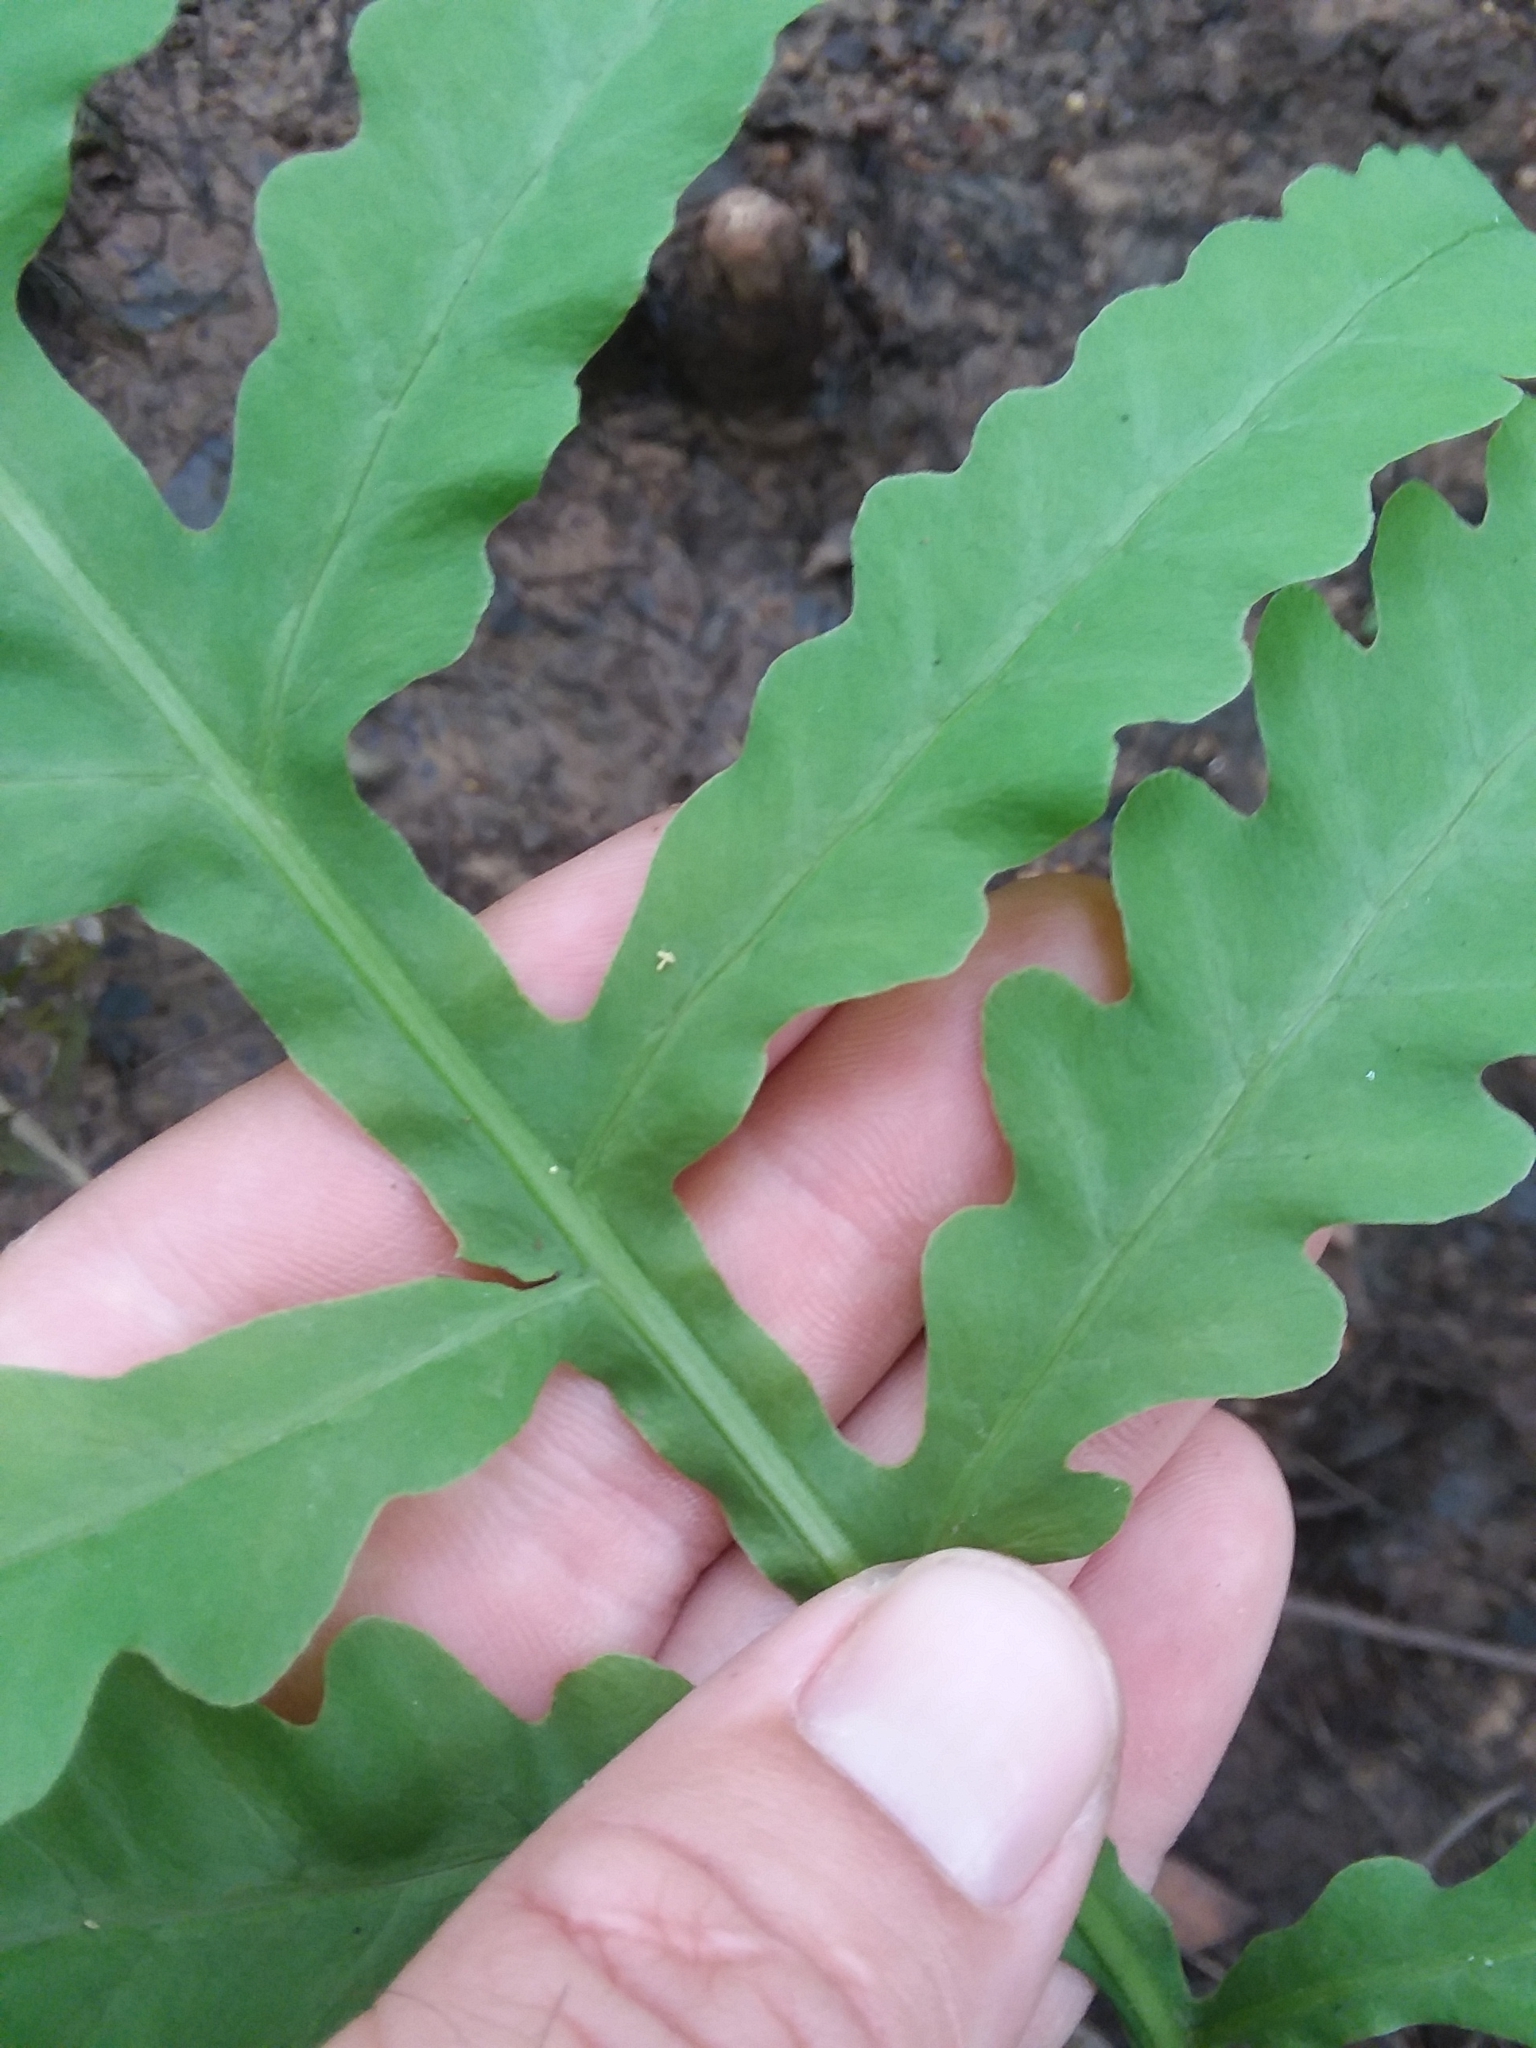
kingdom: Plantae
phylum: Tracheophyta
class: Polypodiopsida
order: Polypodiales
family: Onocleaceae
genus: Onoclea
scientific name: Onoclea sensibilis
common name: Sensitive fern
